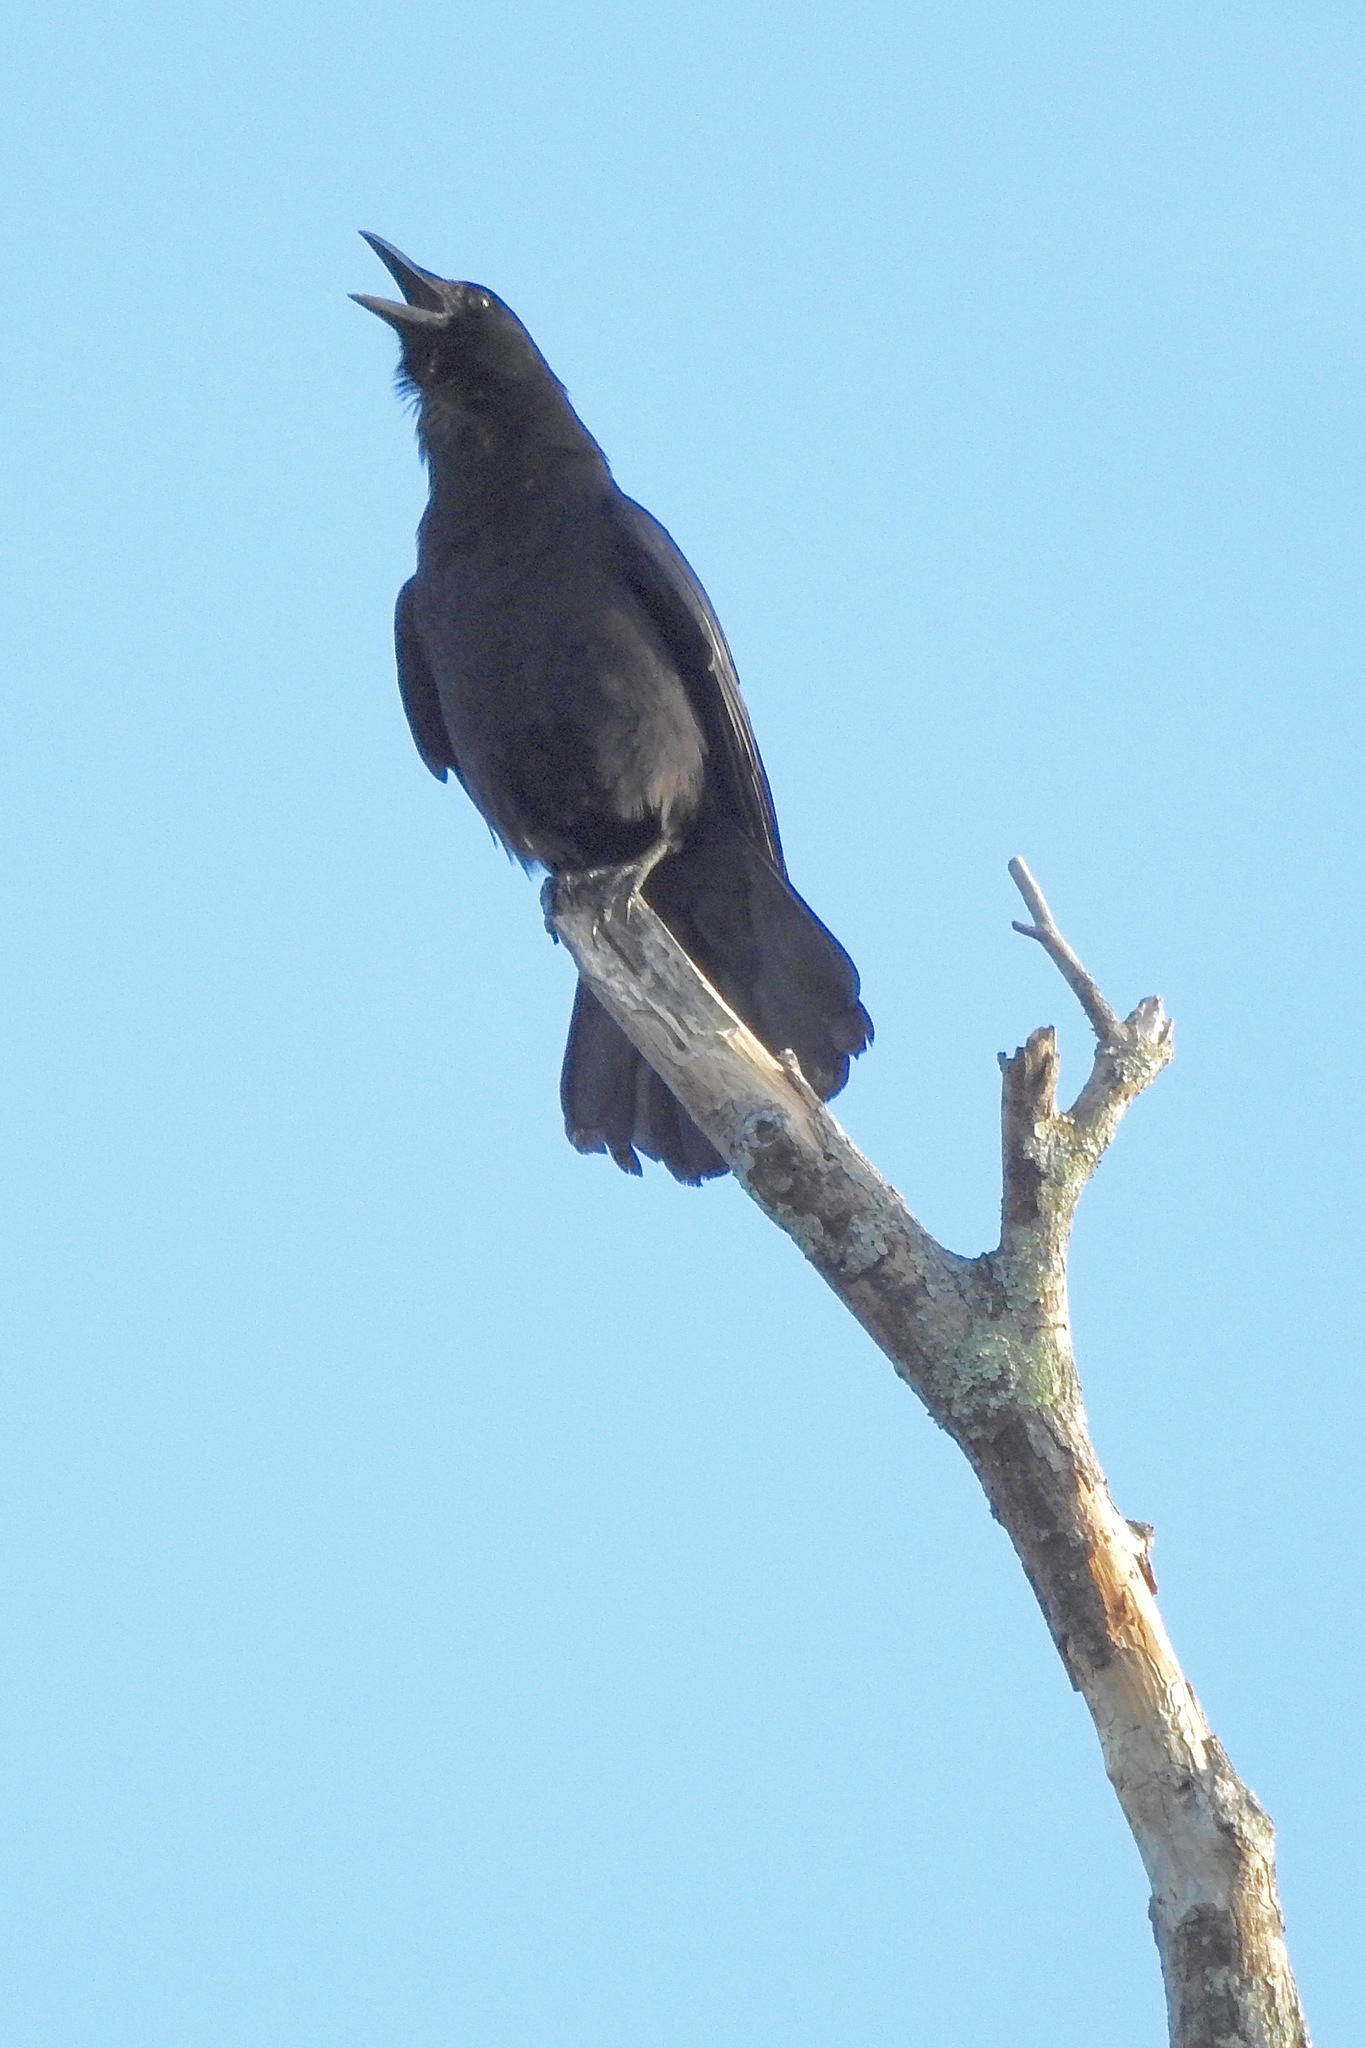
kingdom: Animalia
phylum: Chordata
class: Aves
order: Passeriformes
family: Corvidae
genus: Corvus
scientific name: Corvus brachyrhynchos
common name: American crow
